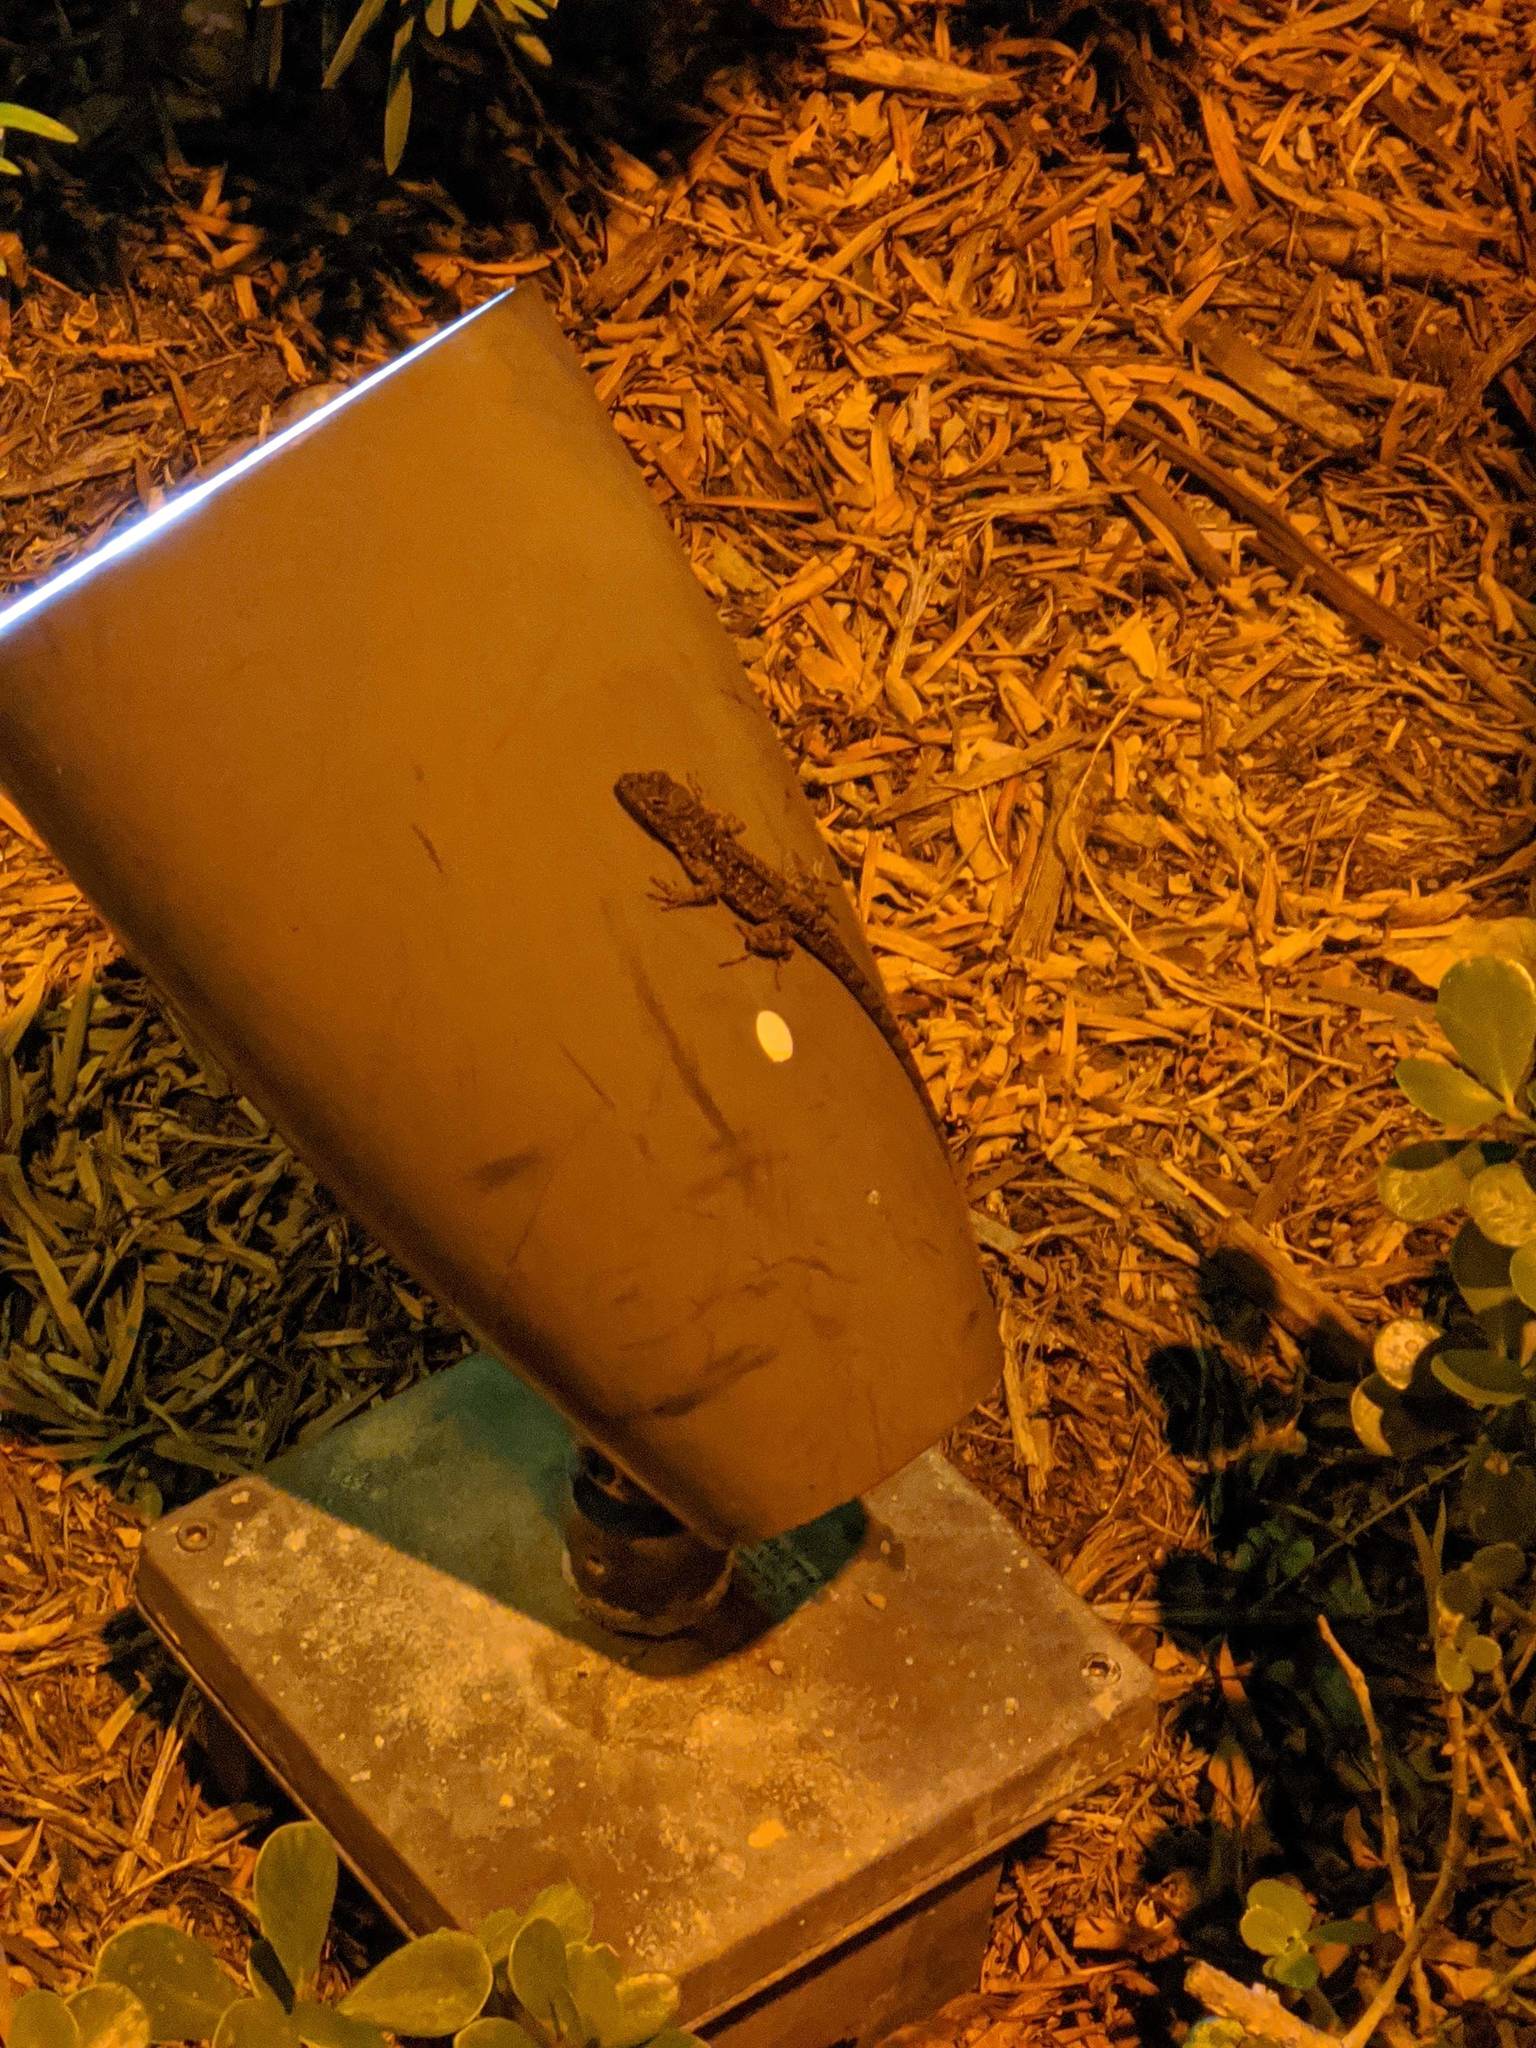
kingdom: Animalia
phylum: Chordata
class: Squamata
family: Dactyloidae
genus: Anolis
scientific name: Anolis sagrei
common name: Brown anole
